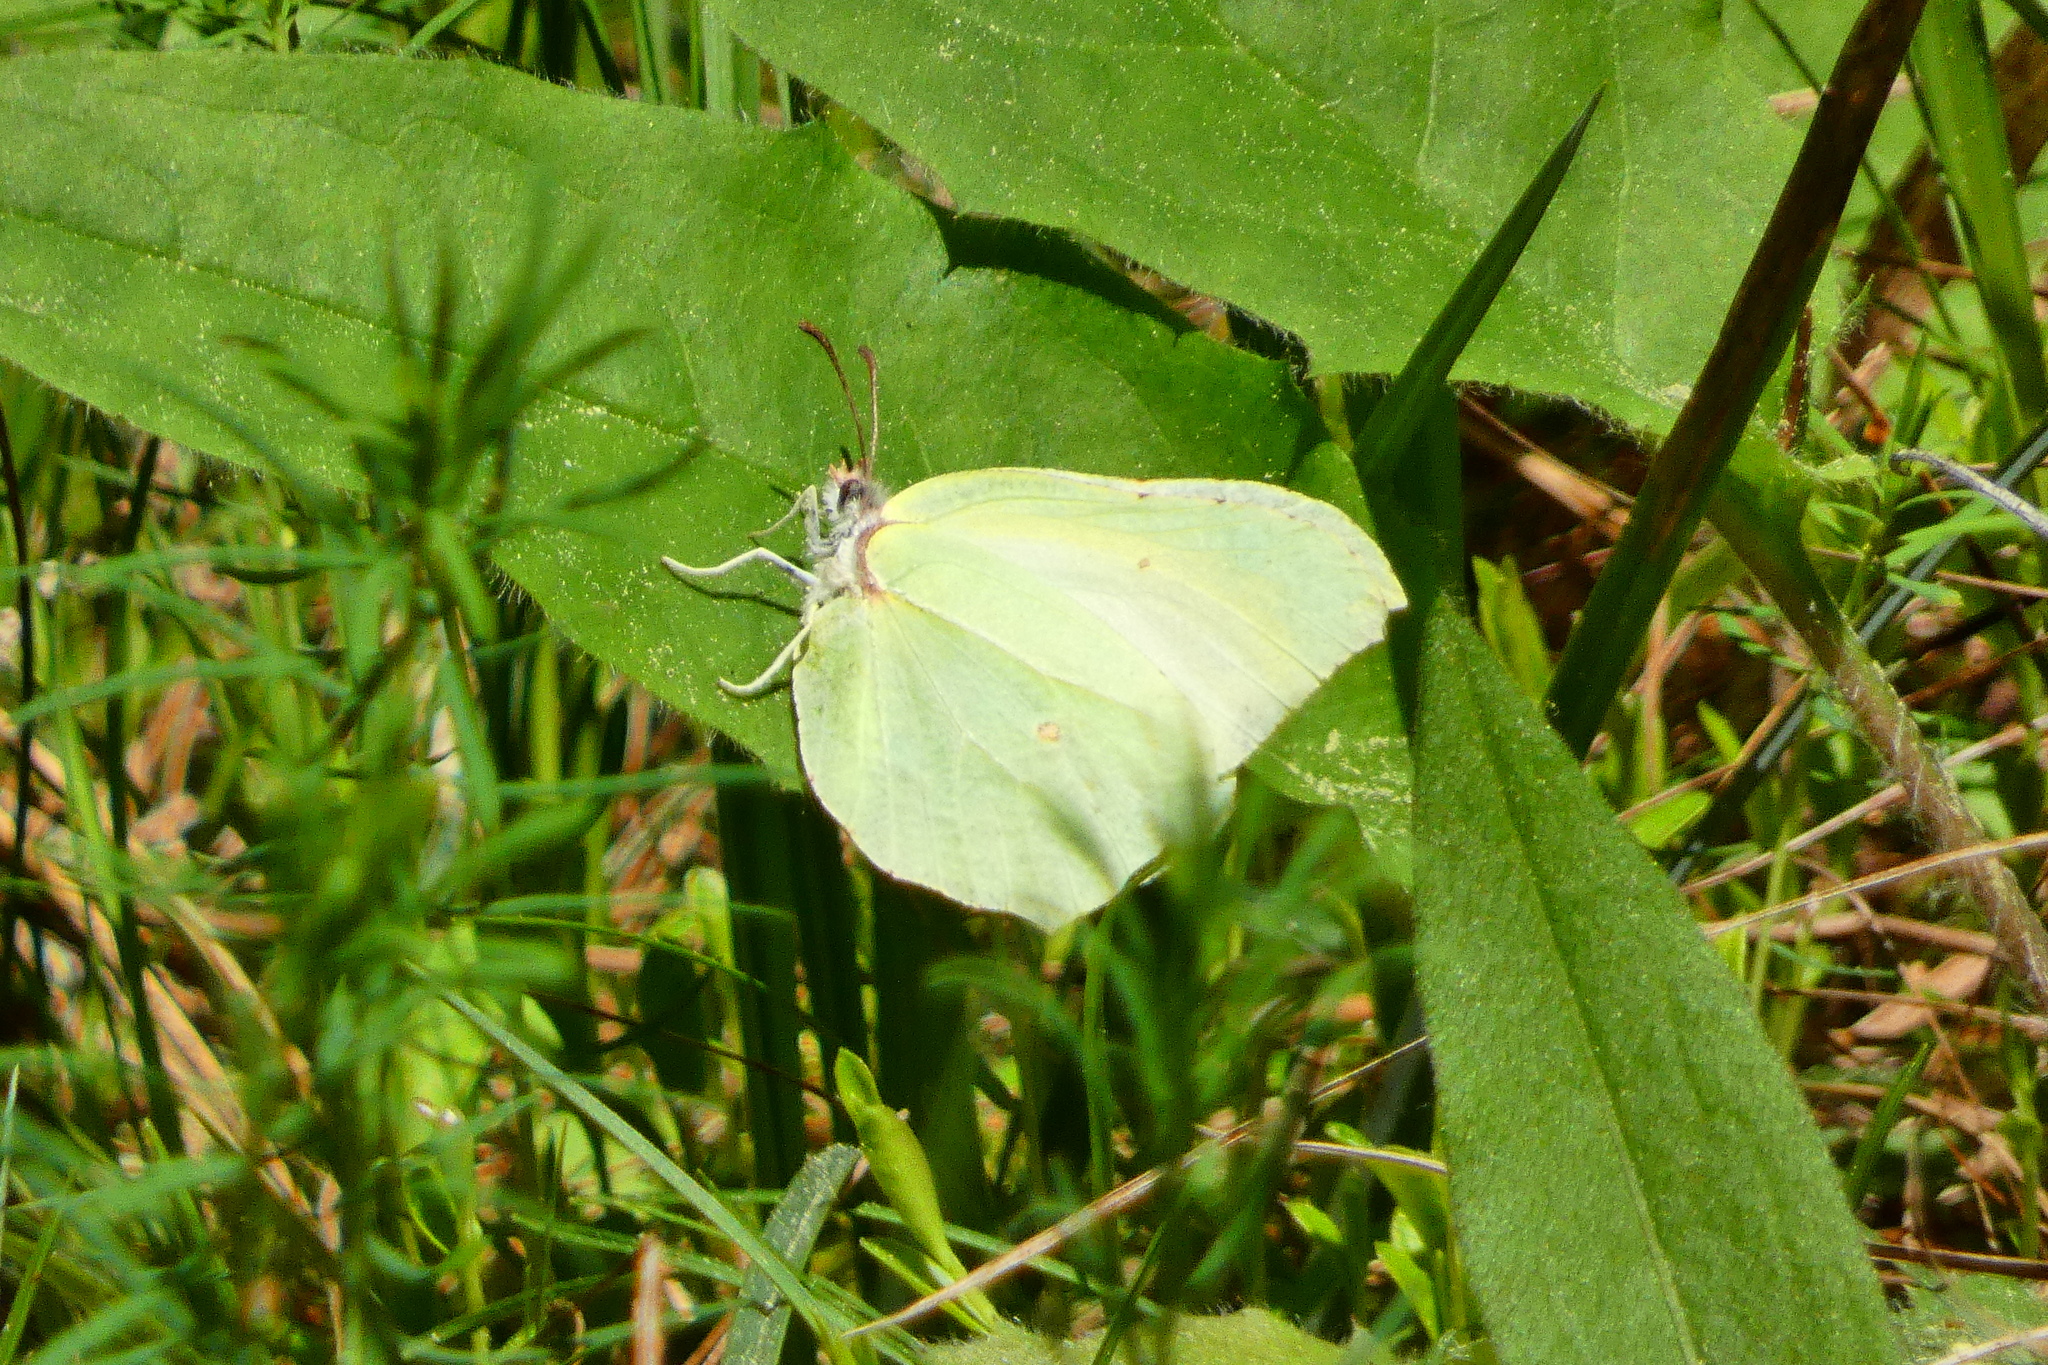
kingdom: Animalia
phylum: Arthropoda
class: Insecta
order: Lepidoptera
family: Pieridae
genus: Gonepteryx
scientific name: Gonepteryx rhamni
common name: Brimstone
